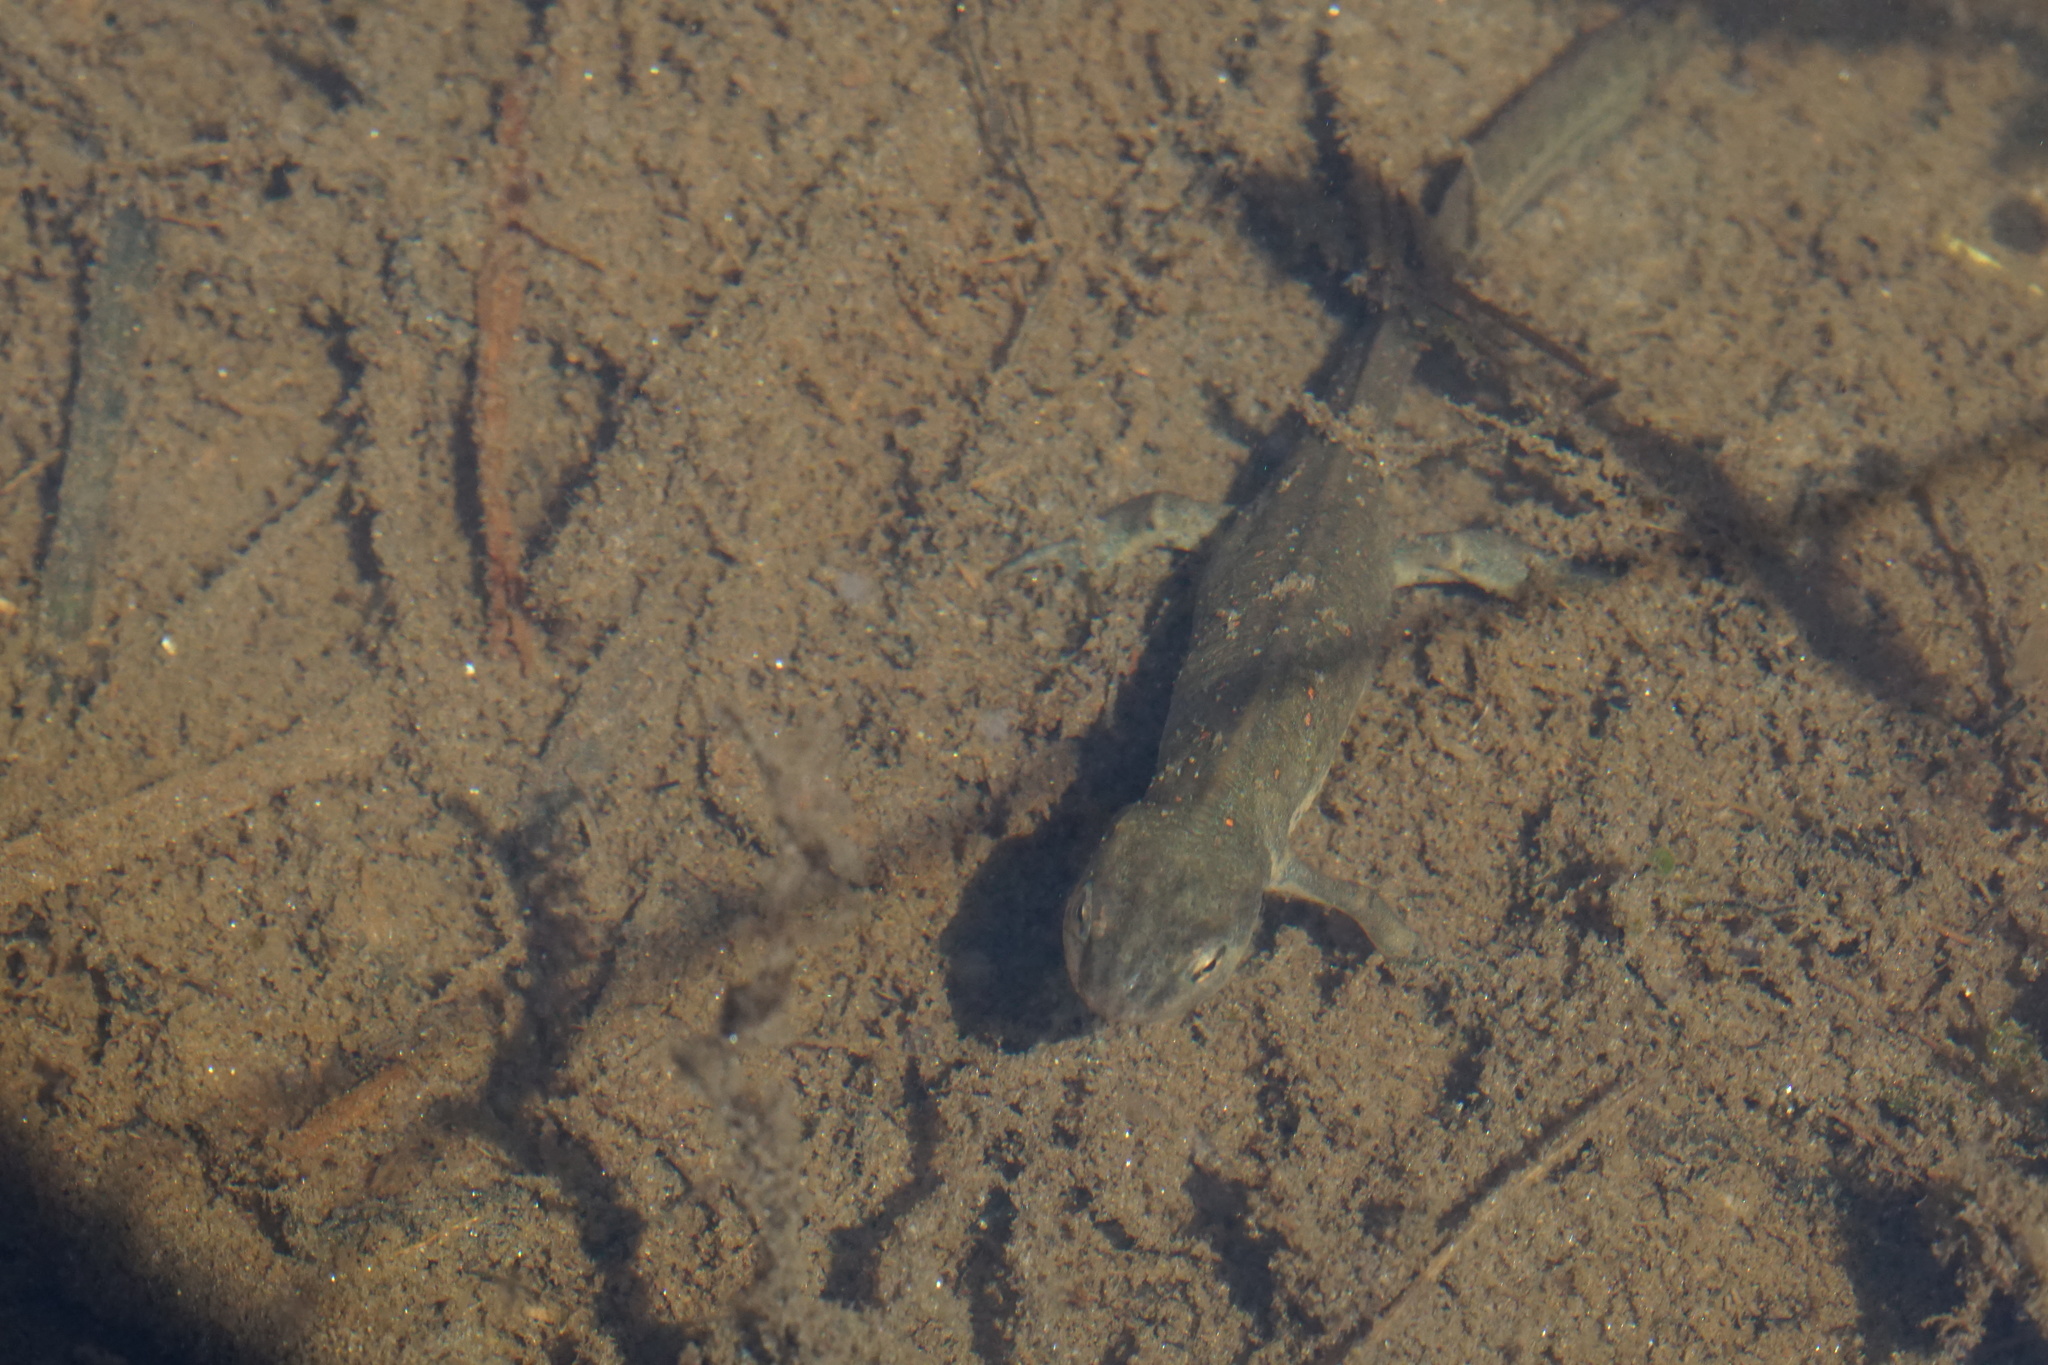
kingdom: Animalia
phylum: Chordata
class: Amphibia
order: Caudata
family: Salamandridae
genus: Notophthalmus
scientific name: Notophthalmus viridescens
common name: Eastern newt
